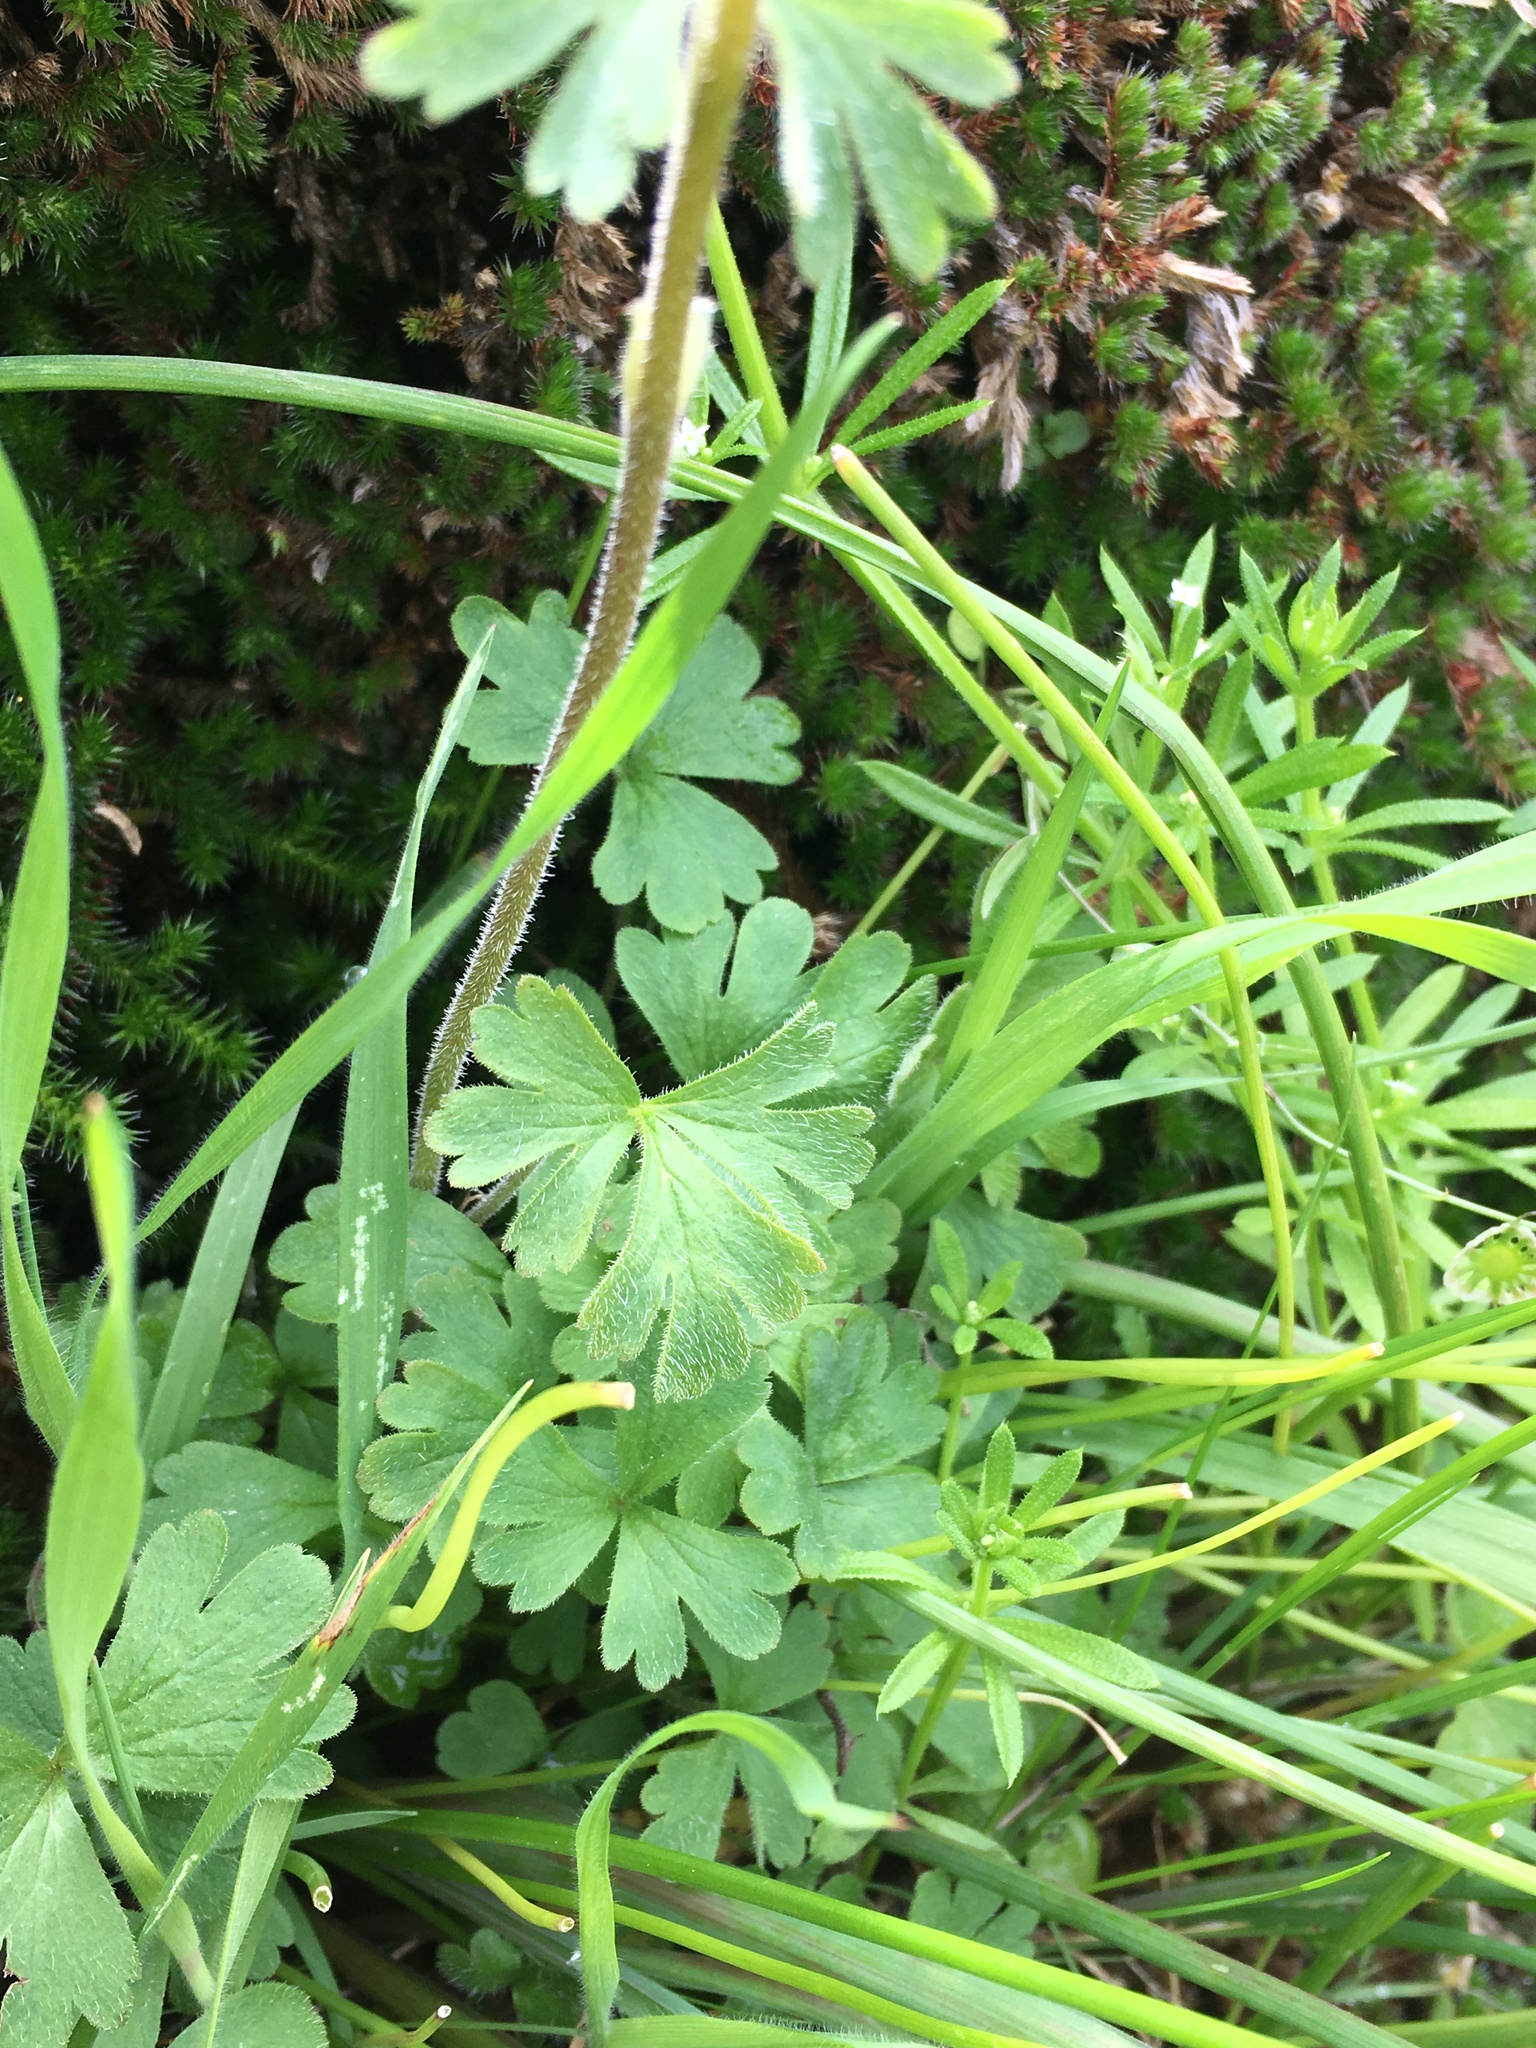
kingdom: Plantae
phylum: Tracheophyta
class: Magnoliopsida
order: Saxifragales
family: Saxifragaceae
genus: Lithophragma
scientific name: Lithophragma parviflorum
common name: Small-flowered fringe-cup
